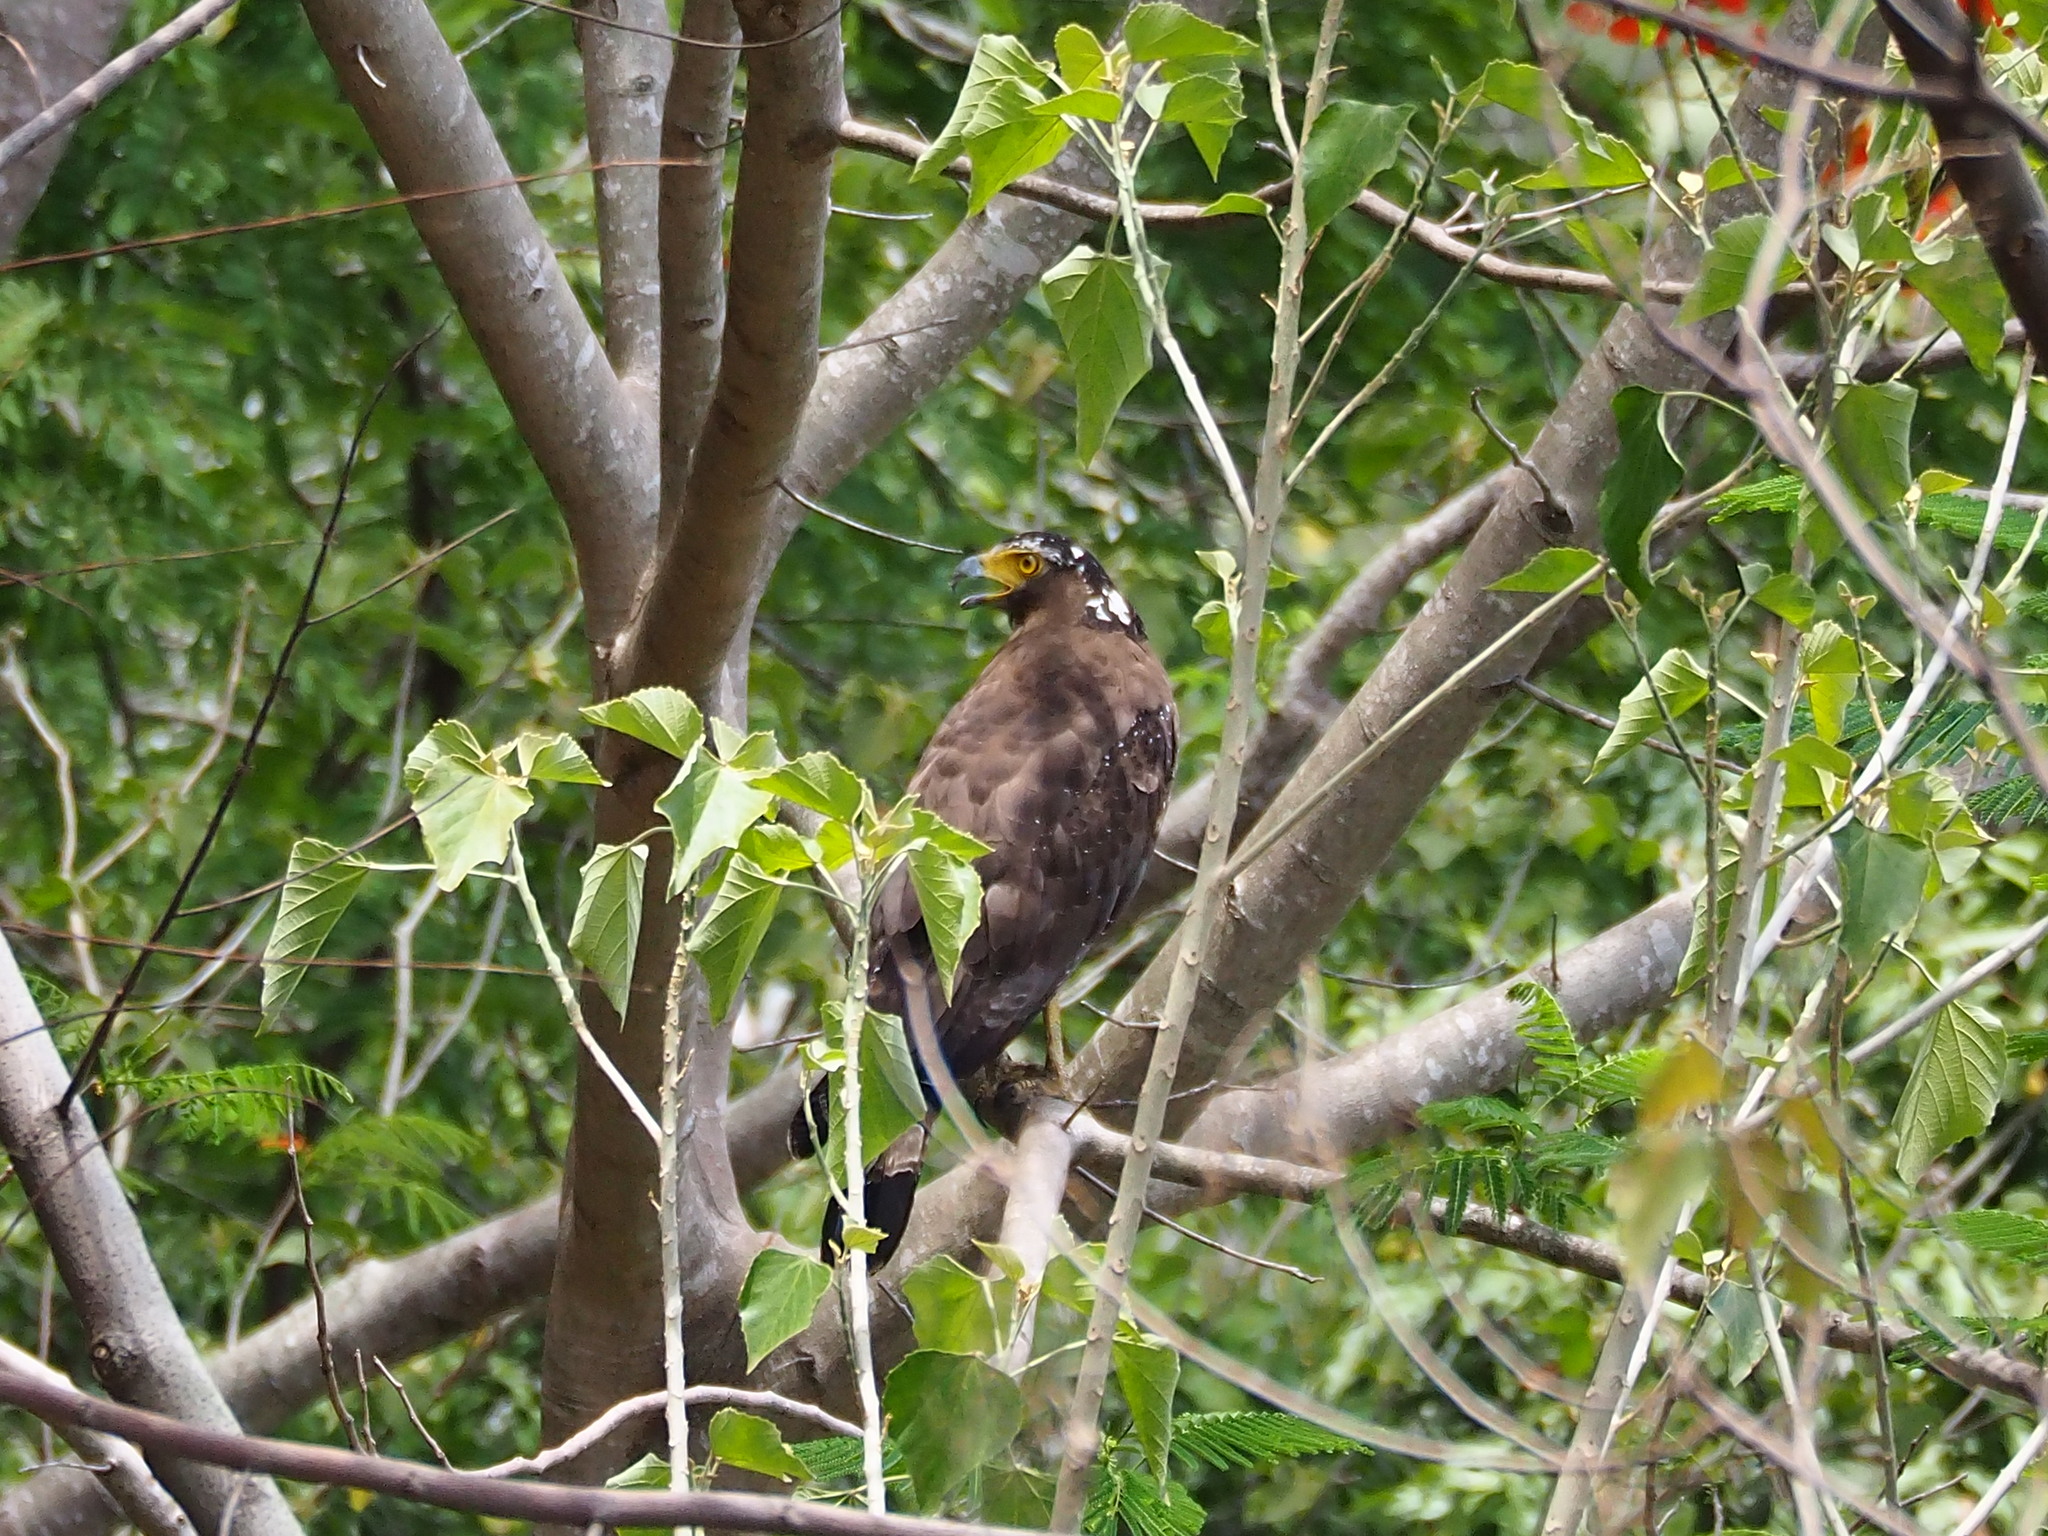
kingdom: Animalia
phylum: Chordata
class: Aves
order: Accipitriformes
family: Accipitridae
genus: Spilornis
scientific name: Spilornis cheela
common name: Crested serpent eagle
